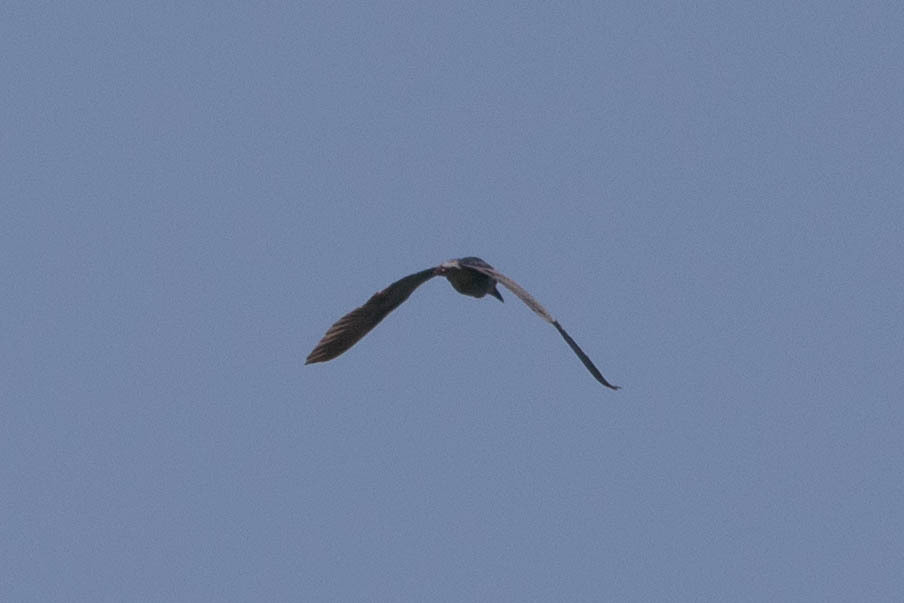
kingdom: Animalia
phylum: Chordata
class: Aves
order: Pelecaniformes
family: Ardeidae
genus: Nycticorax
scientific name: Nycticorax nycticorax
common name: Black-crowned night heron
